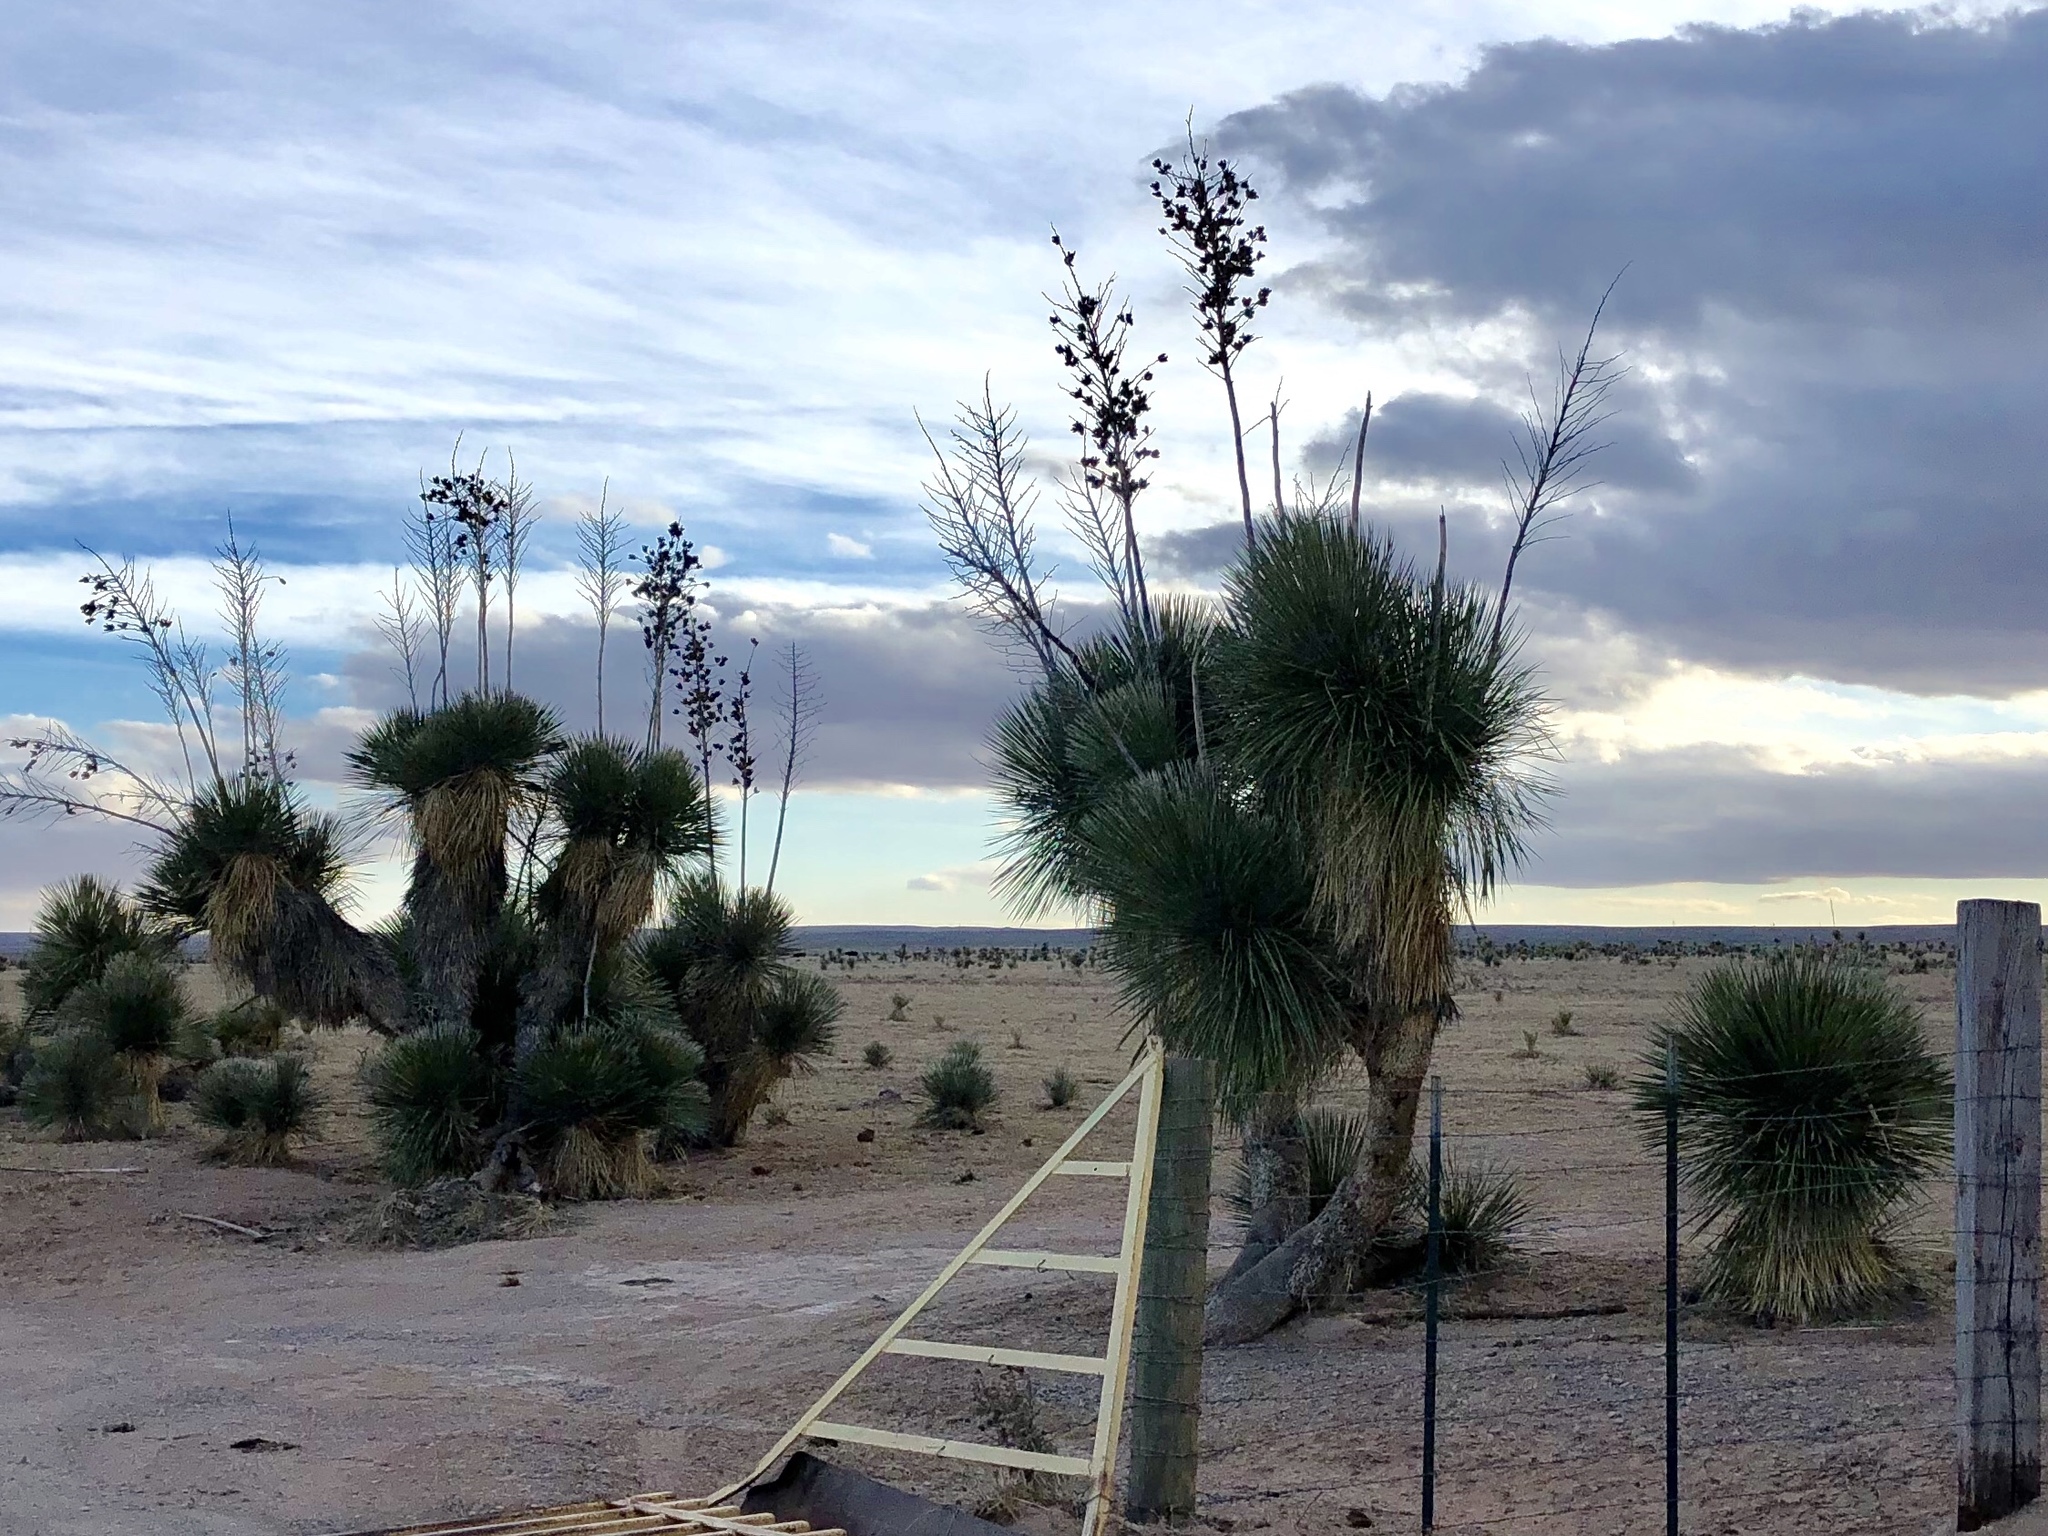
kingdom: Plantae
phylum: Tracheophyta
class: Liliopsida
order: Asparagales
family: Asparagaceae
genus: Yucca
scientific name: Yucca elata
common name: Palmella
